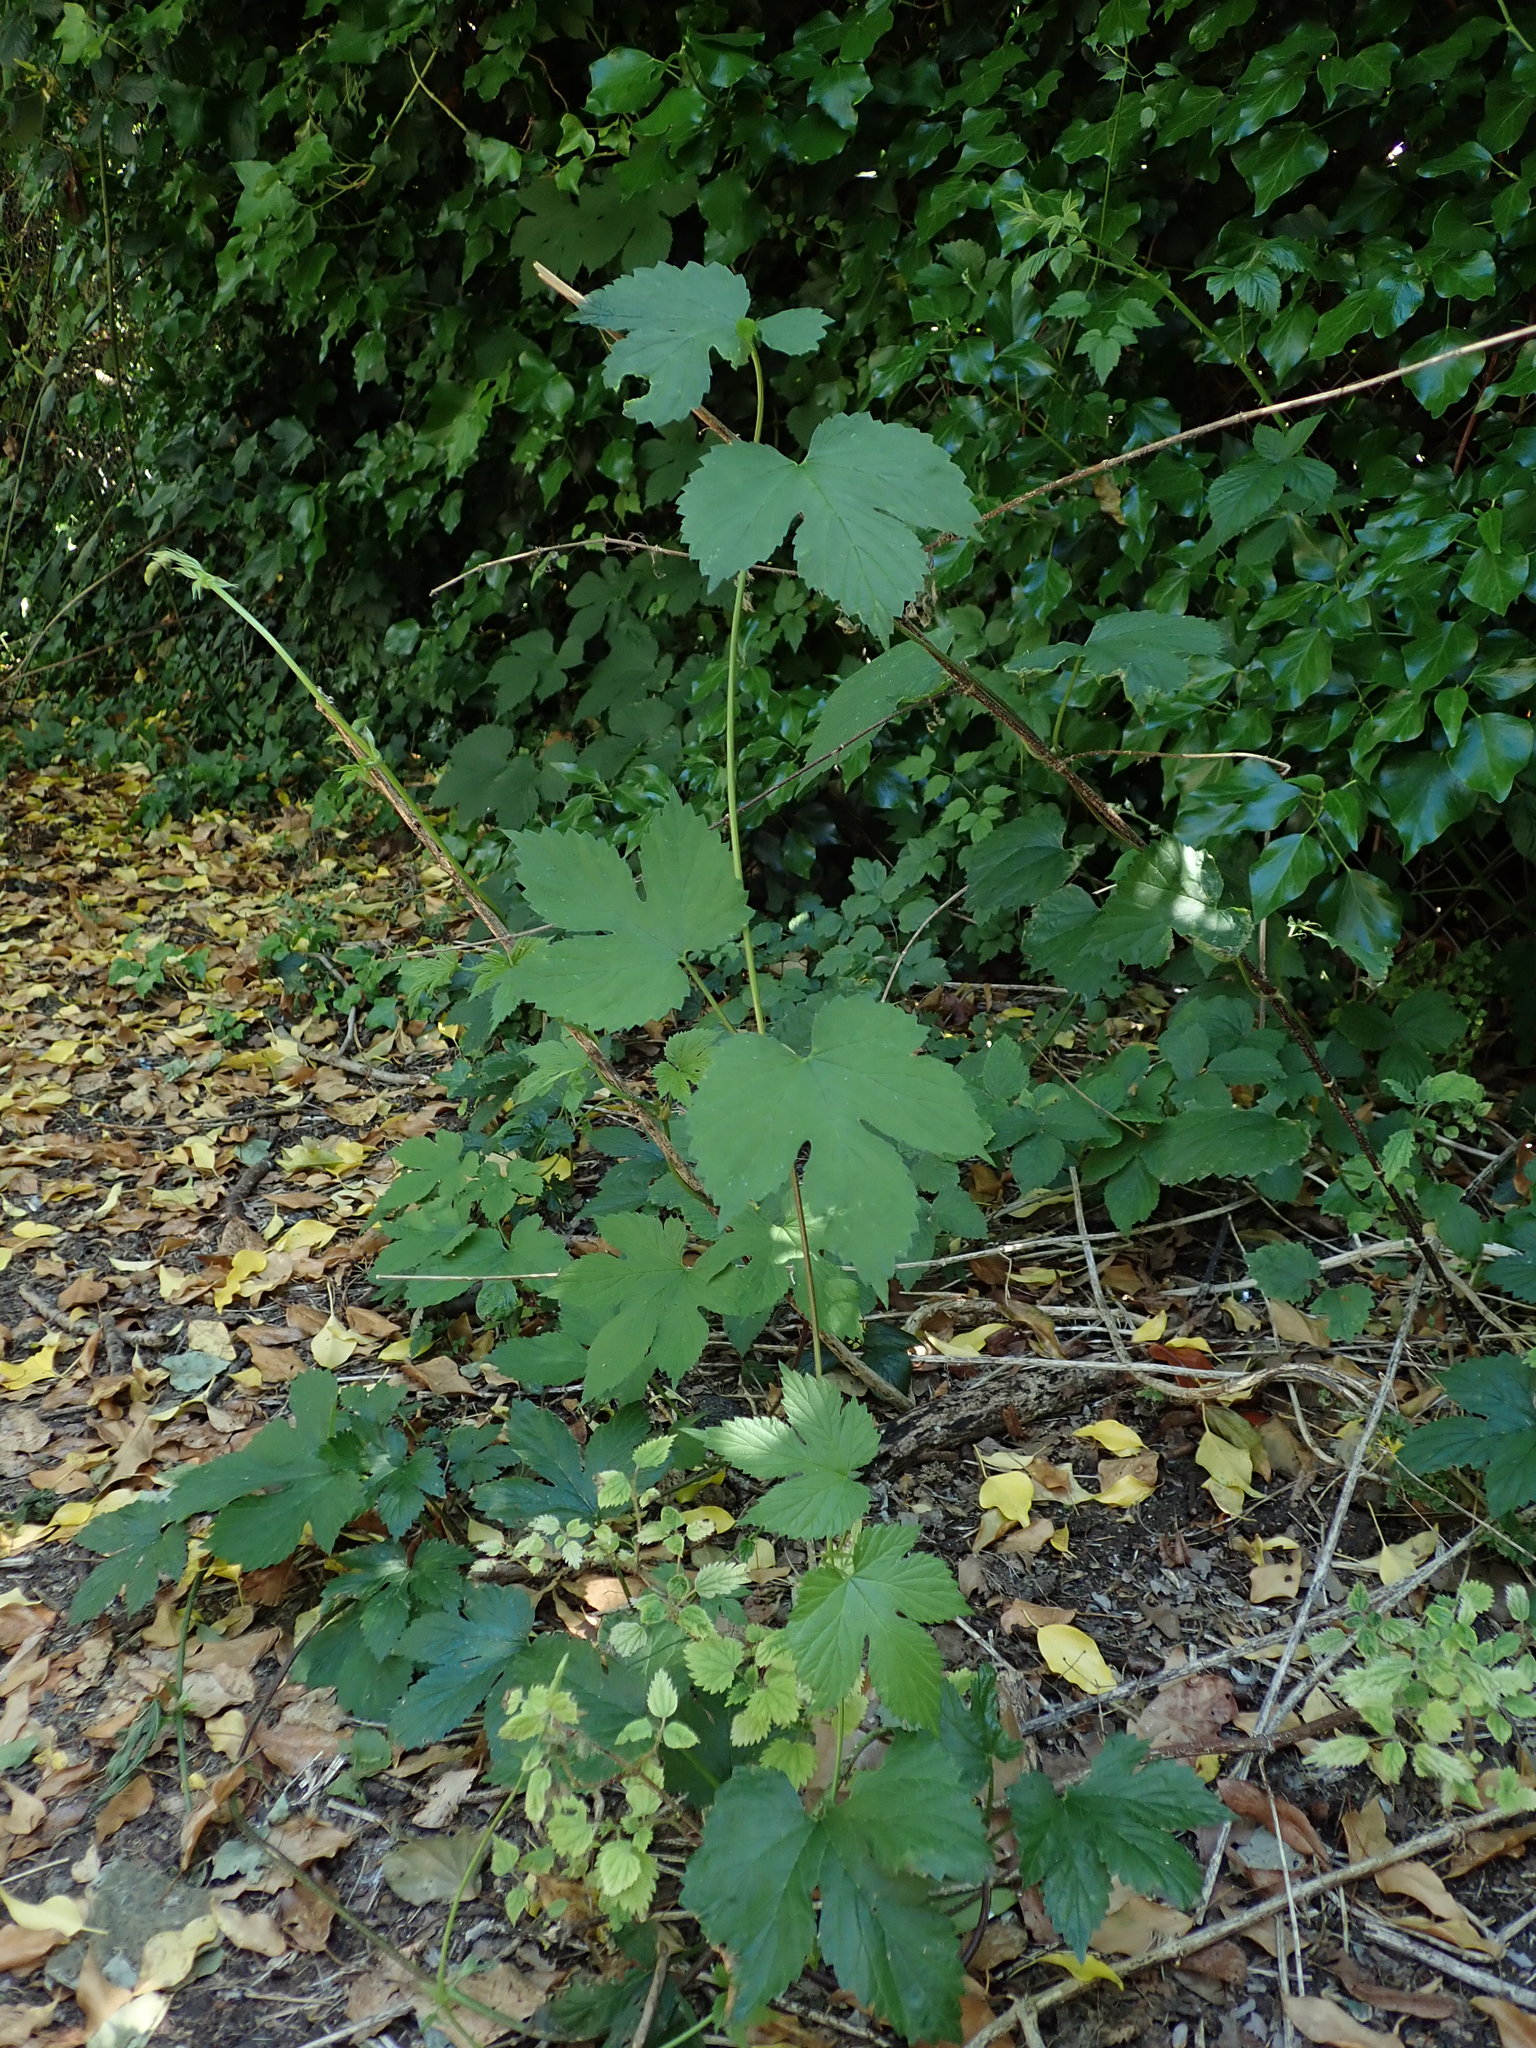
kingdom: Plantae
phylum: Tracheophyta
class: Magnoliopsida
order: Rosales
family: Cannabaceae
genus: Humulus
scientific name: Humulus lupulus
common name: Hop
